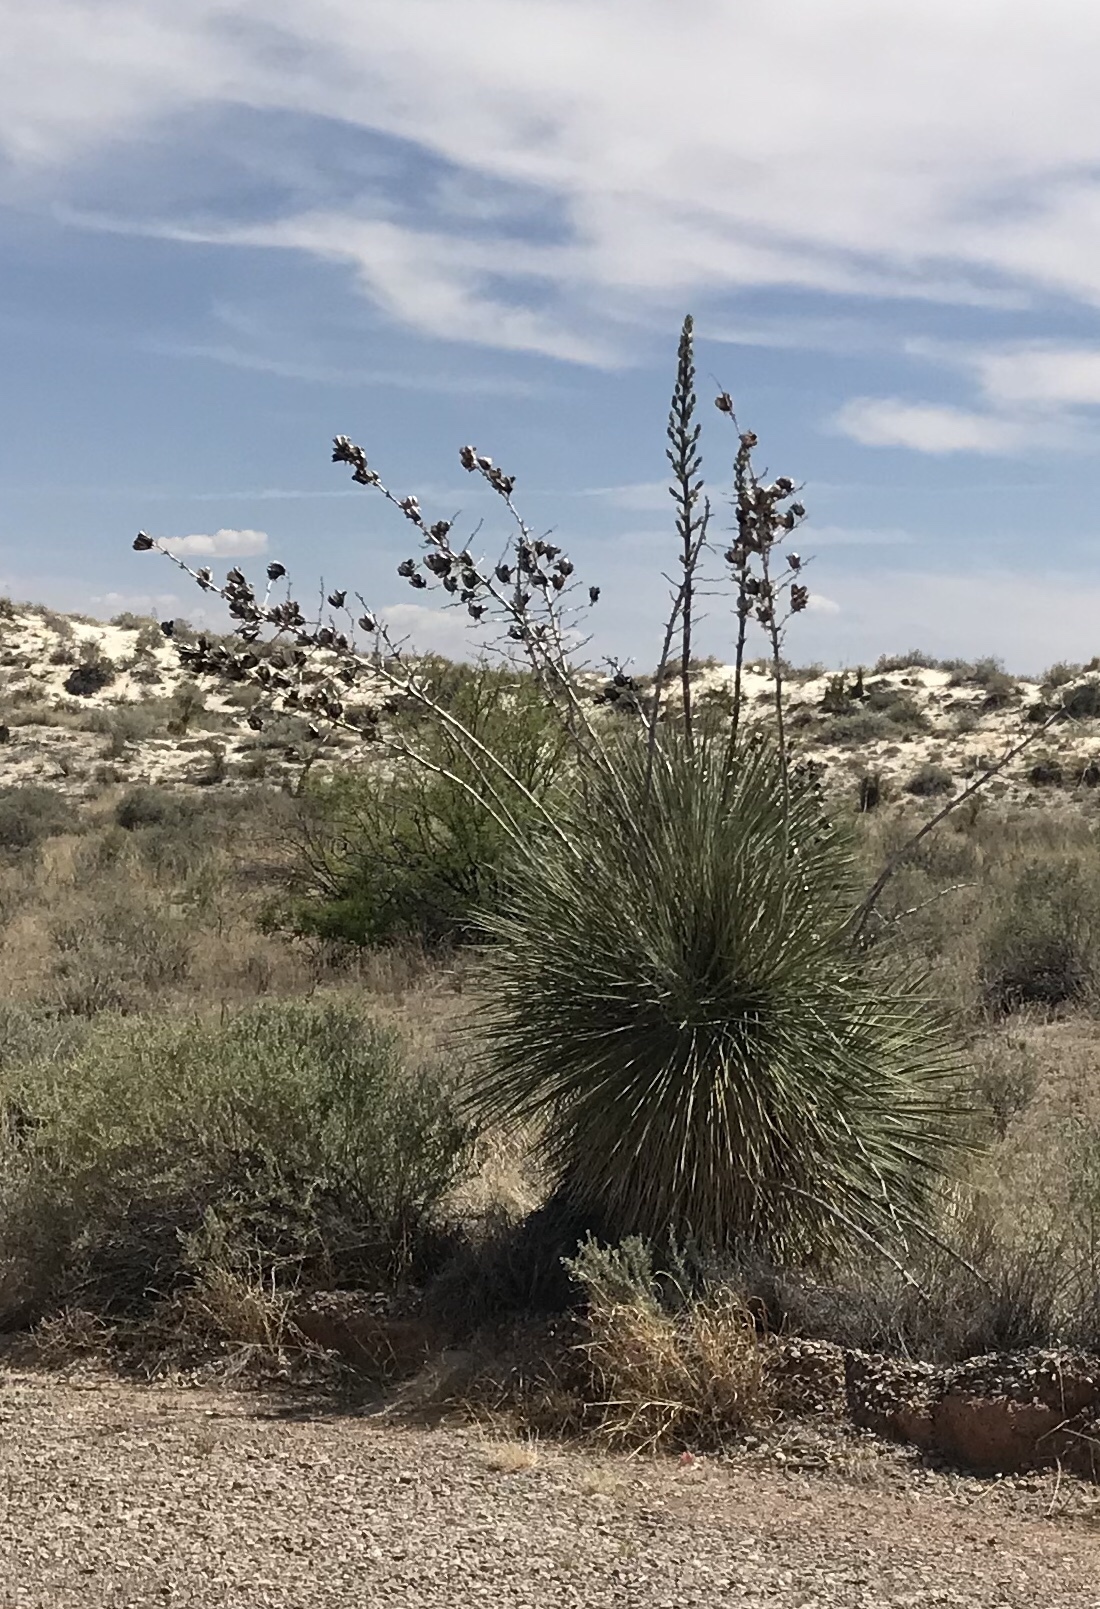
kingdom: Plantae
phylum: Tracheophyta
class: Liliopsida
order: Asparagales
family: Asparagaceae
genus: Yucca
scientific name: Yucca elata
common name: Palmella
